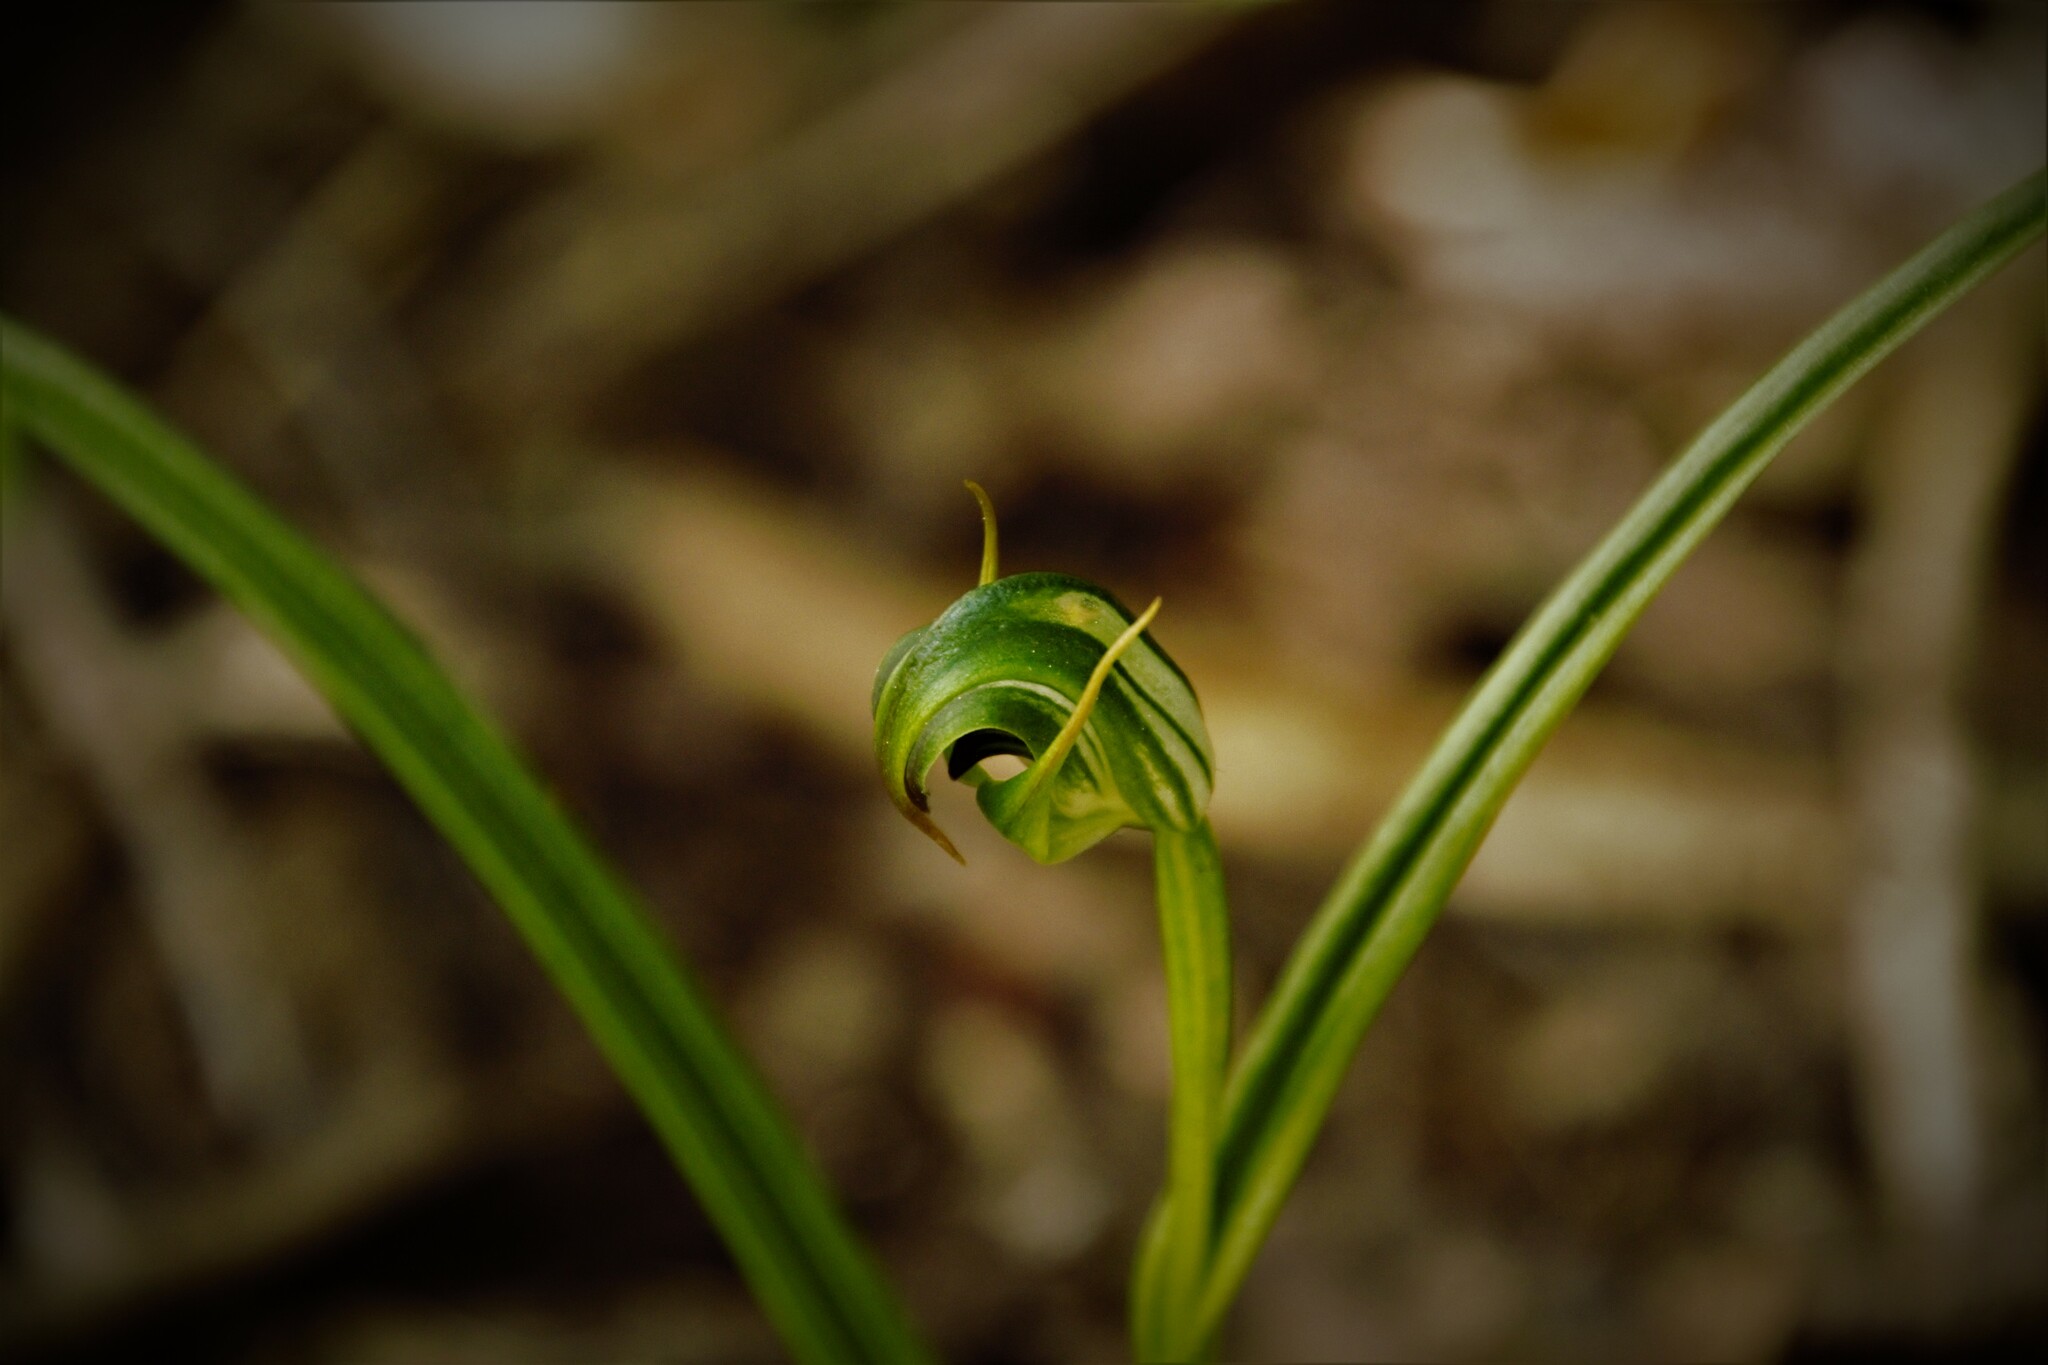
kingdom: Plantae
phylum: Tracheophyta
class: Liliopsida
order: Asparagales
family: Orchidaceae
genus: Pterostylis
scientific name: Pterostylis graminea
